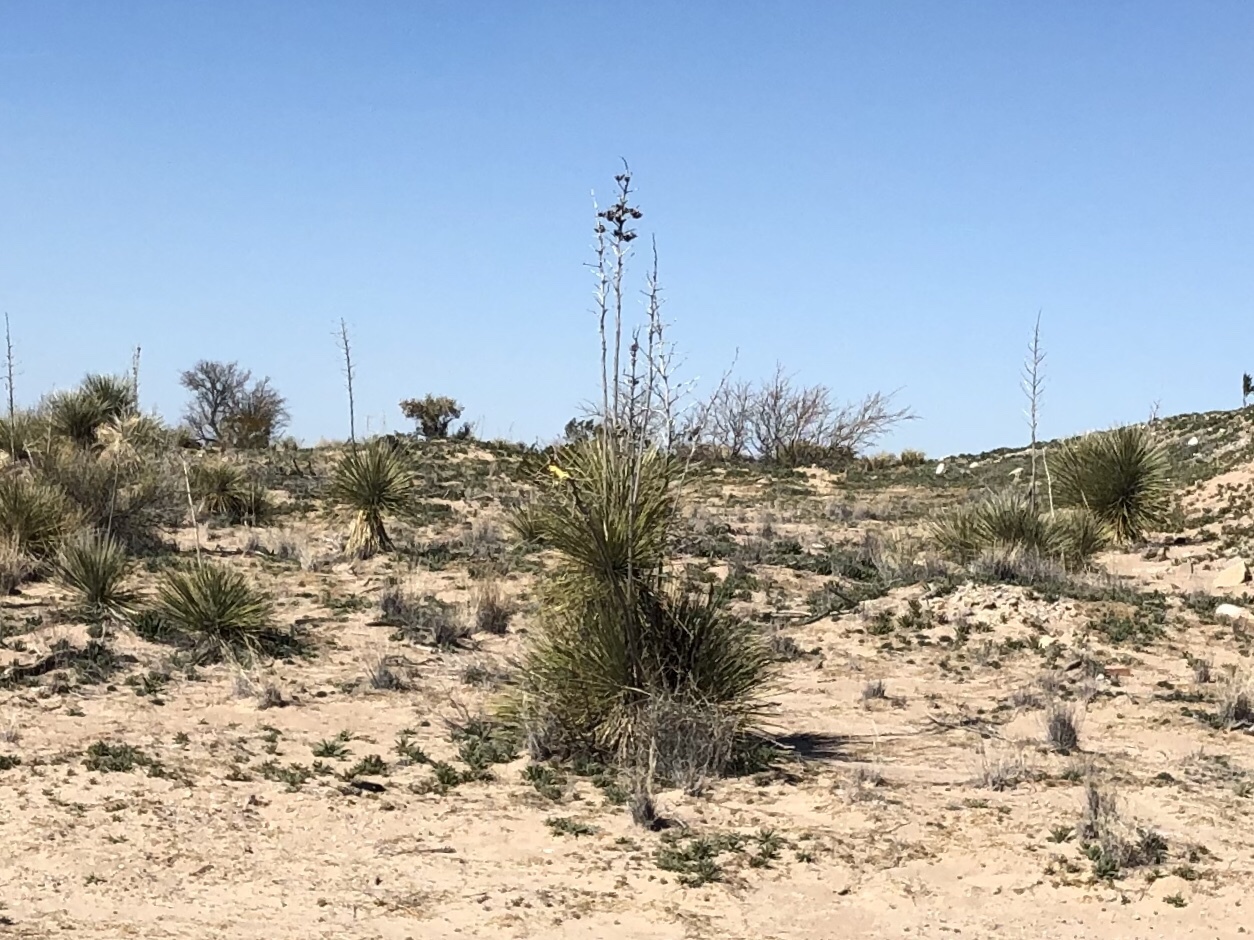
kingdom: Plantae
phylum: Tracheophyta
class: Liliopsida
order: Asparagales
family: Asparagaceae
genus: Yucca
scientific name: Yucca elata
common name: Palmella
